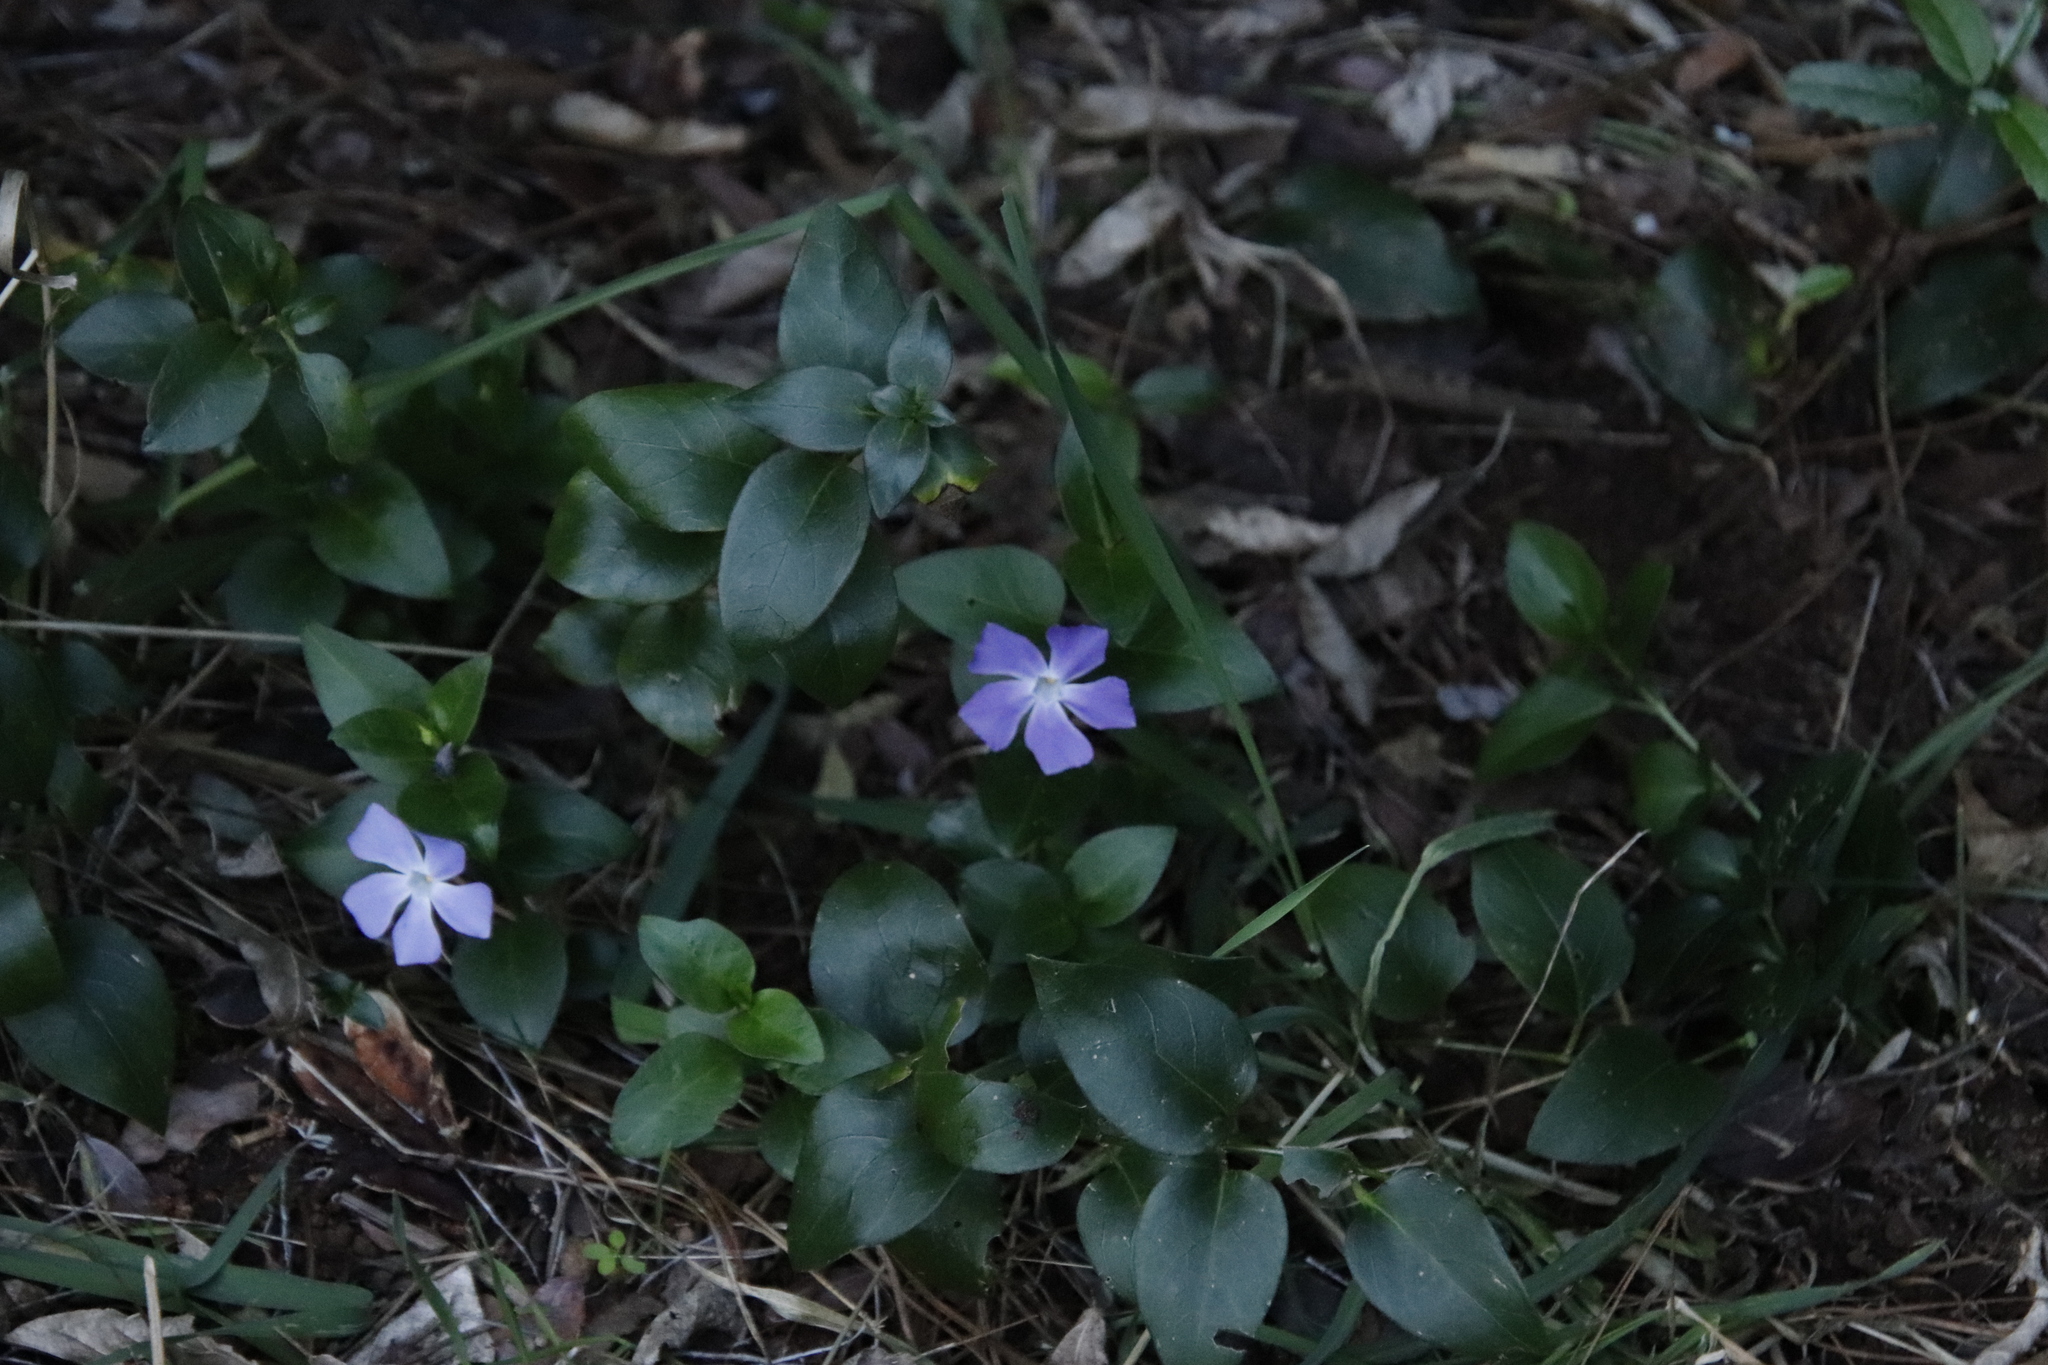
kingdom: Plantae
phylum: Tracheophyta
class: Magnoliopsida
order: Gentianales
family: Apocynaceae
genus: Vinca
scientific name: Vinca major
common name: Greater periwinkle
